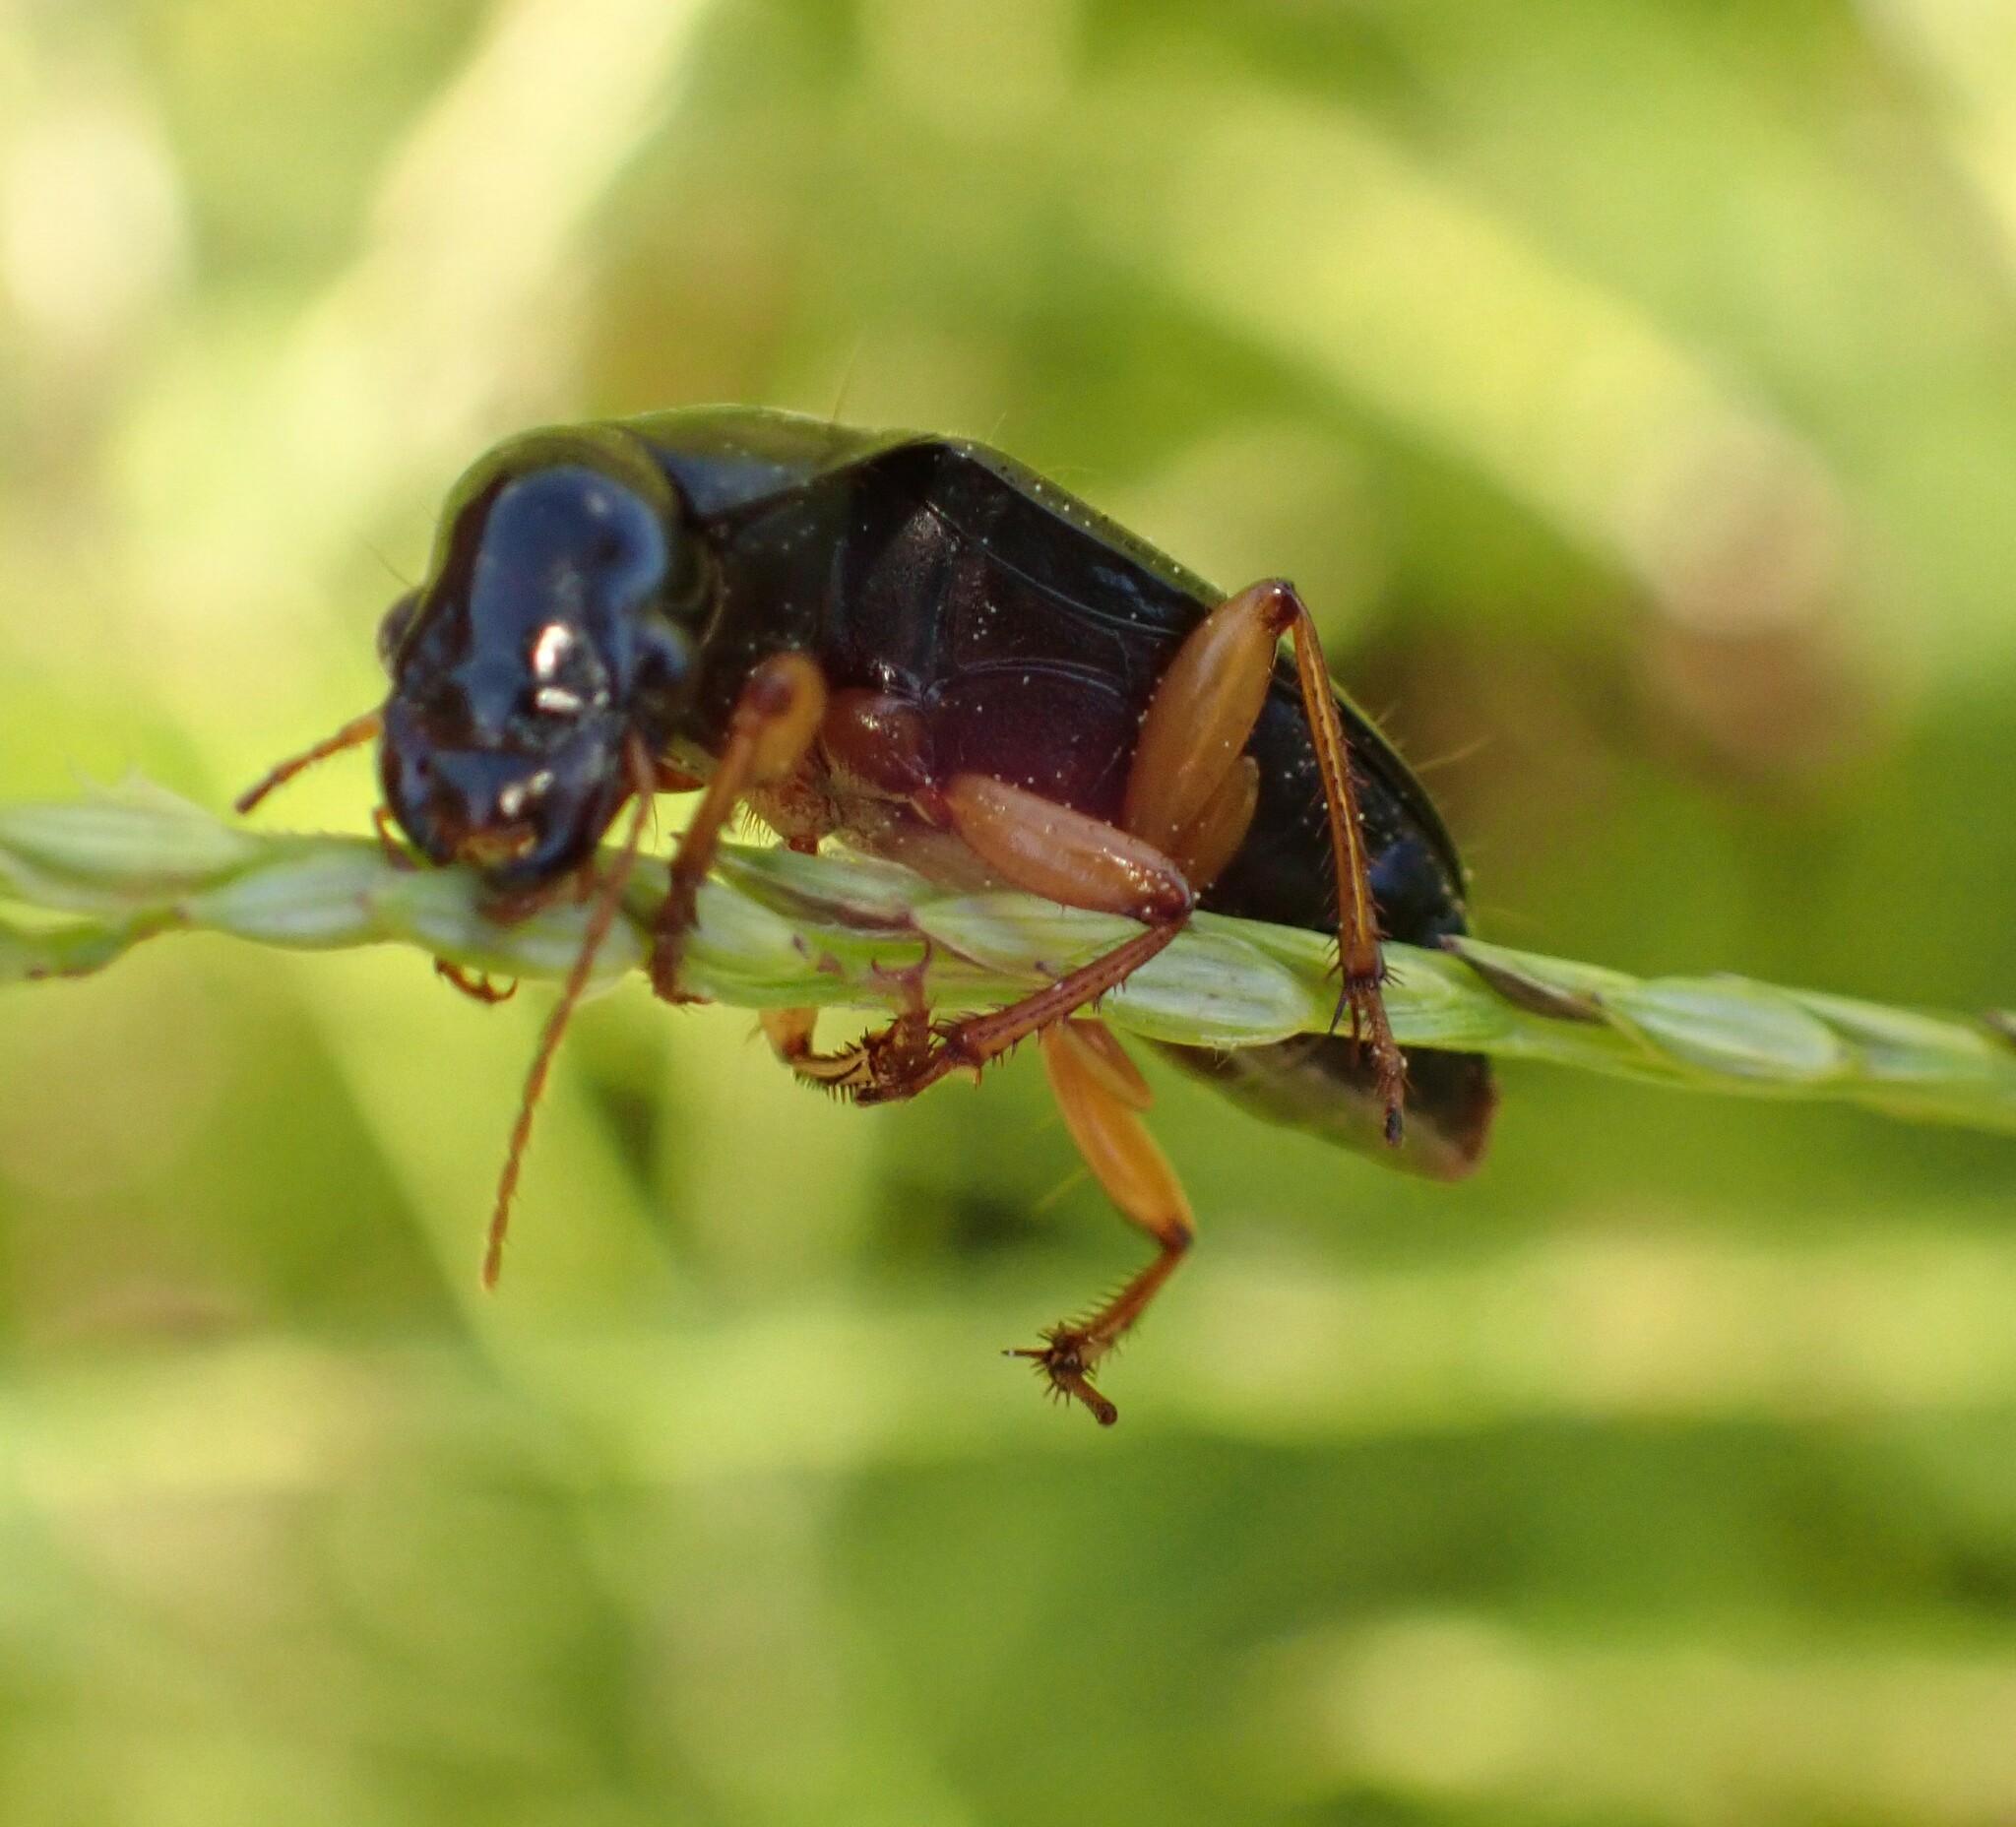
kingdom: Animalia
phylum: Arthropoda
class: Insecta
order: Coleoptera
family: Carabidae
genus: Harpalus
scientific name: Harpalus pensylvanicus
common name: Pennsylvania dingy ground beetle
